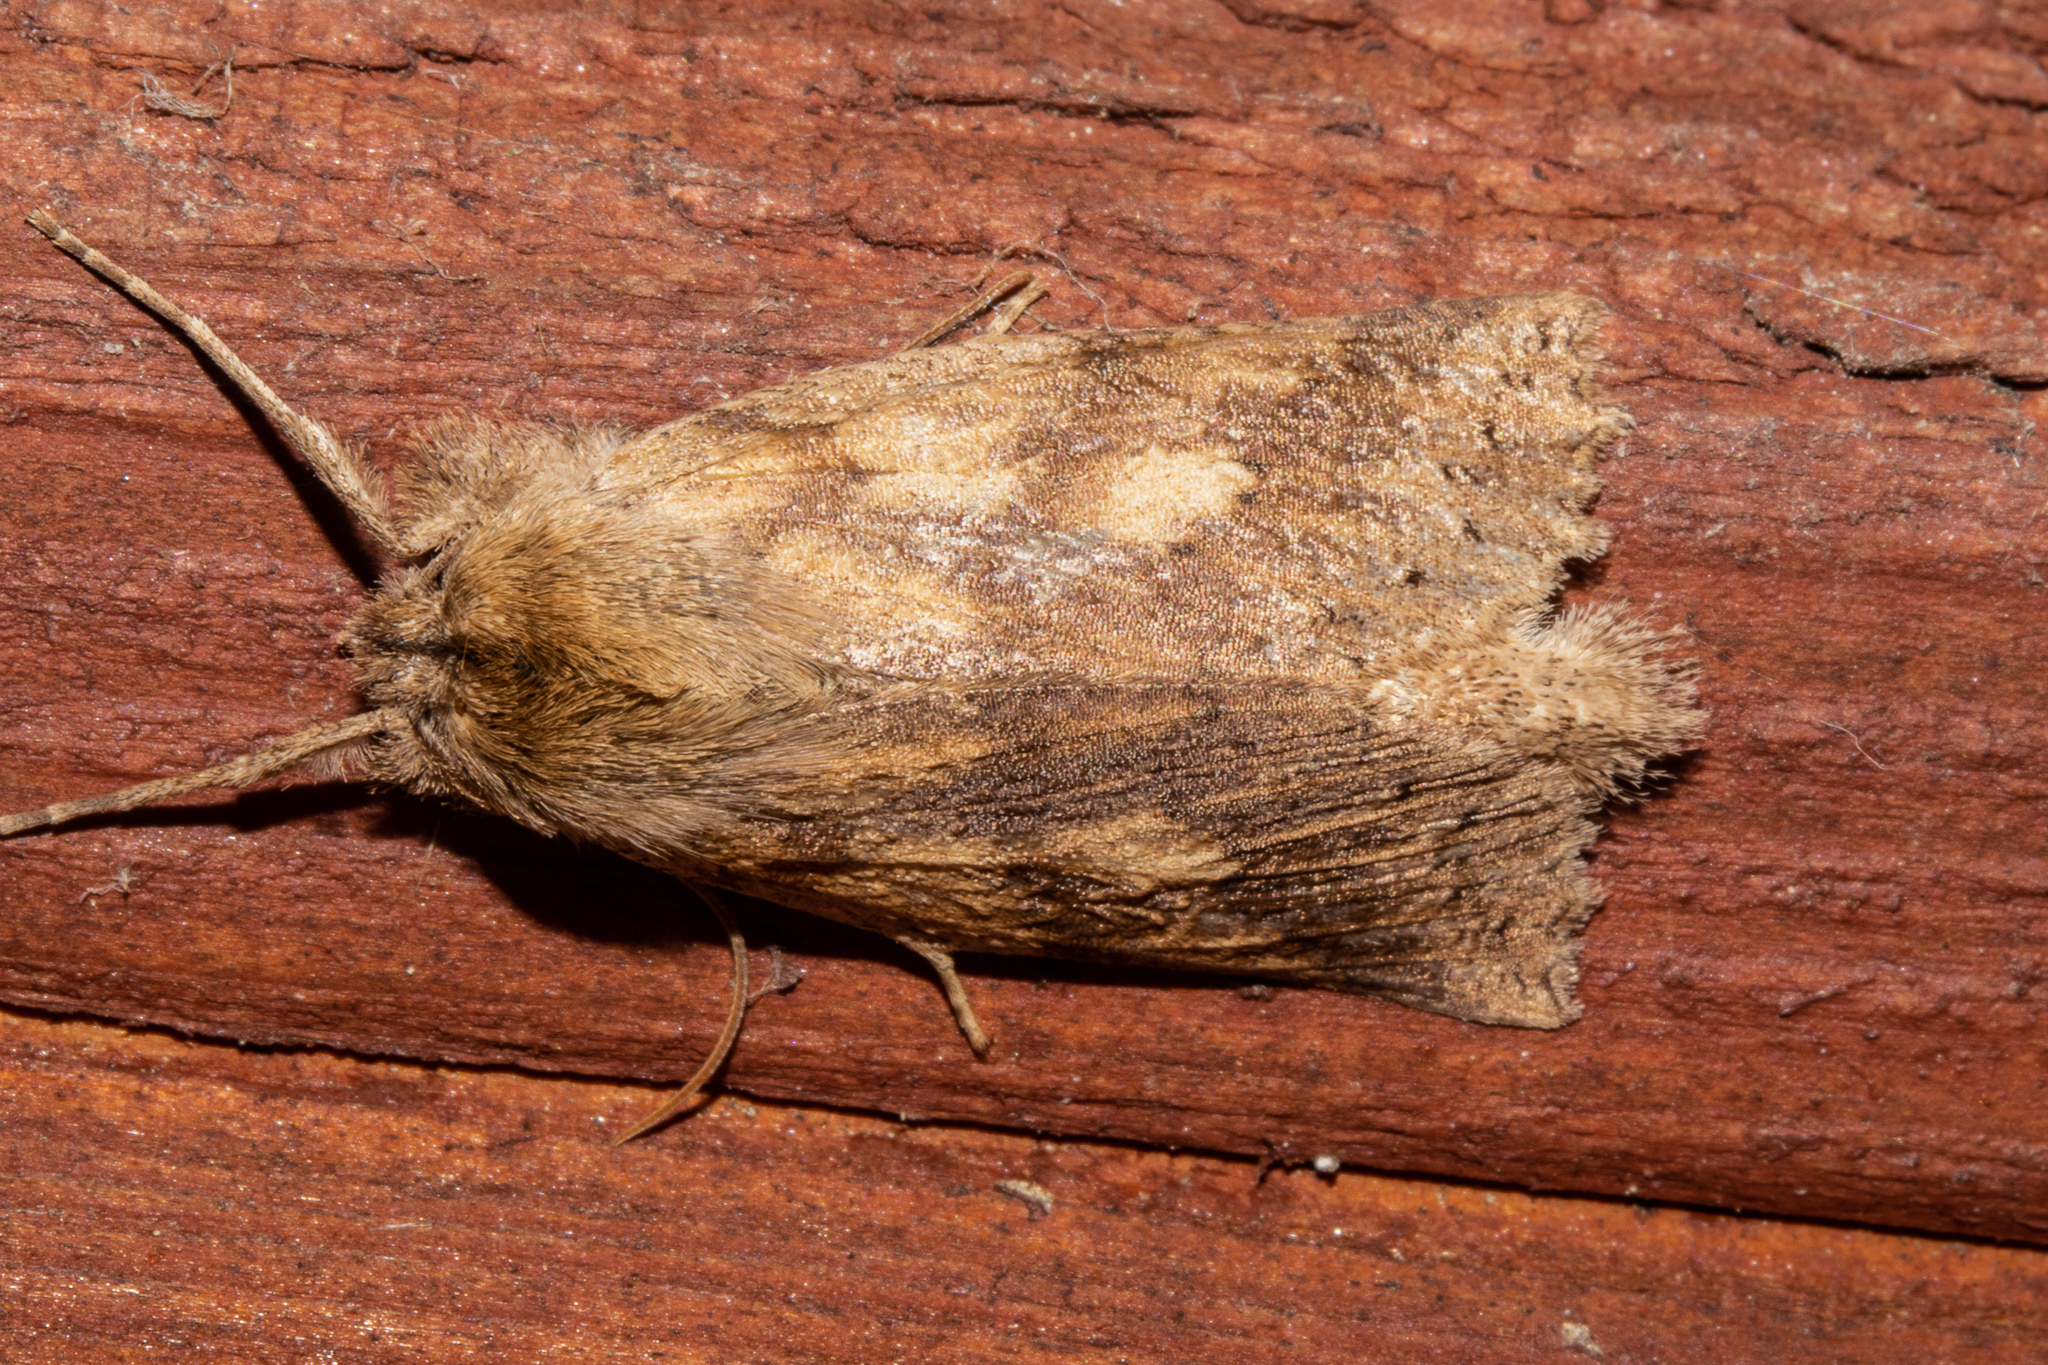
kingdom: Animalia
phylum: Arthropoda
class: Insecta
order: Lepidoptera
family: Geometridae
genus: Declana
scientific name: Declana leptomera
